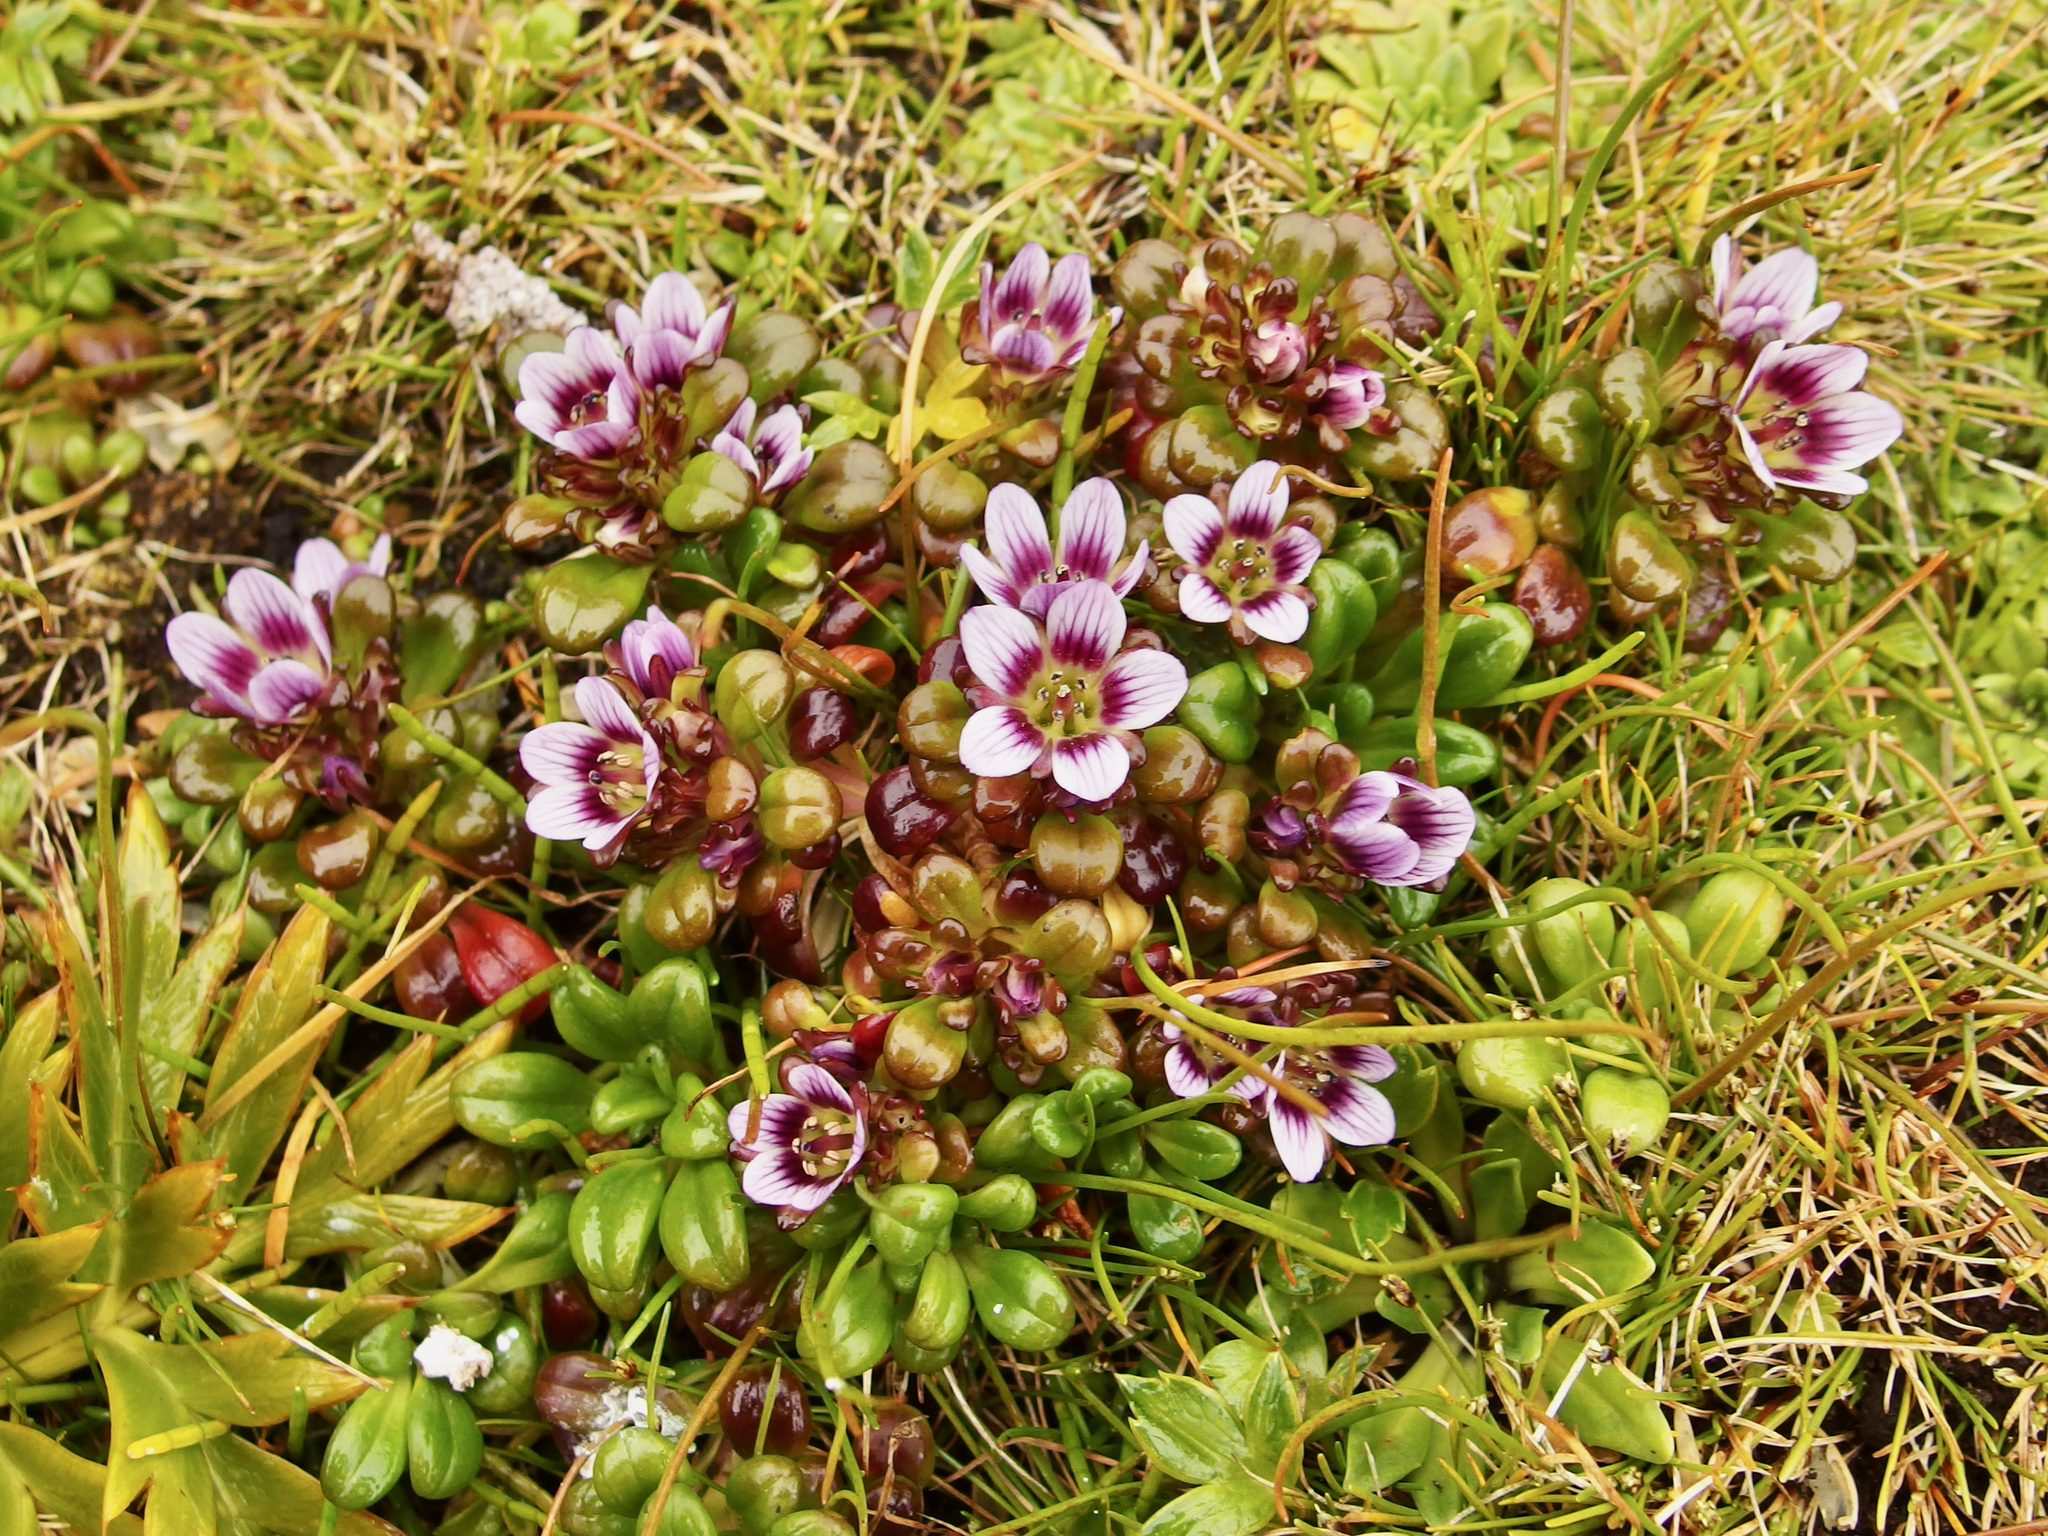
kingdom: Plantae
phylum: Tracheophyta
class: Magnoliopsida
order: Gentianales
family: Gentianaceae
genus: Gentianella
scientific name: Gentianella cerina
